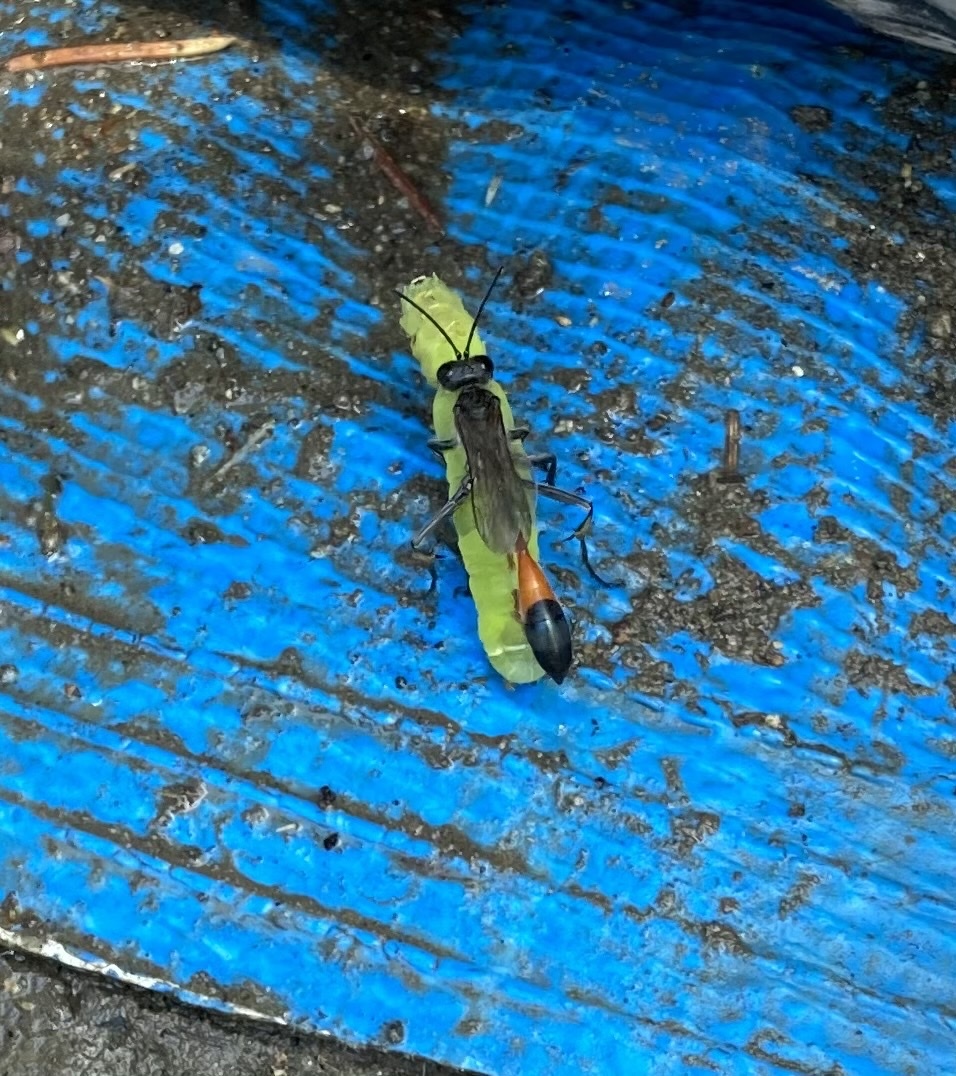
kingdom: Animalia
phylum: Arthropoda
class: Insecta
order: Hymenoptera
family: Sphecidae
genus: Ammophila
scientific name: Ammophila sabulosa
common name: Red banded sand wasp
